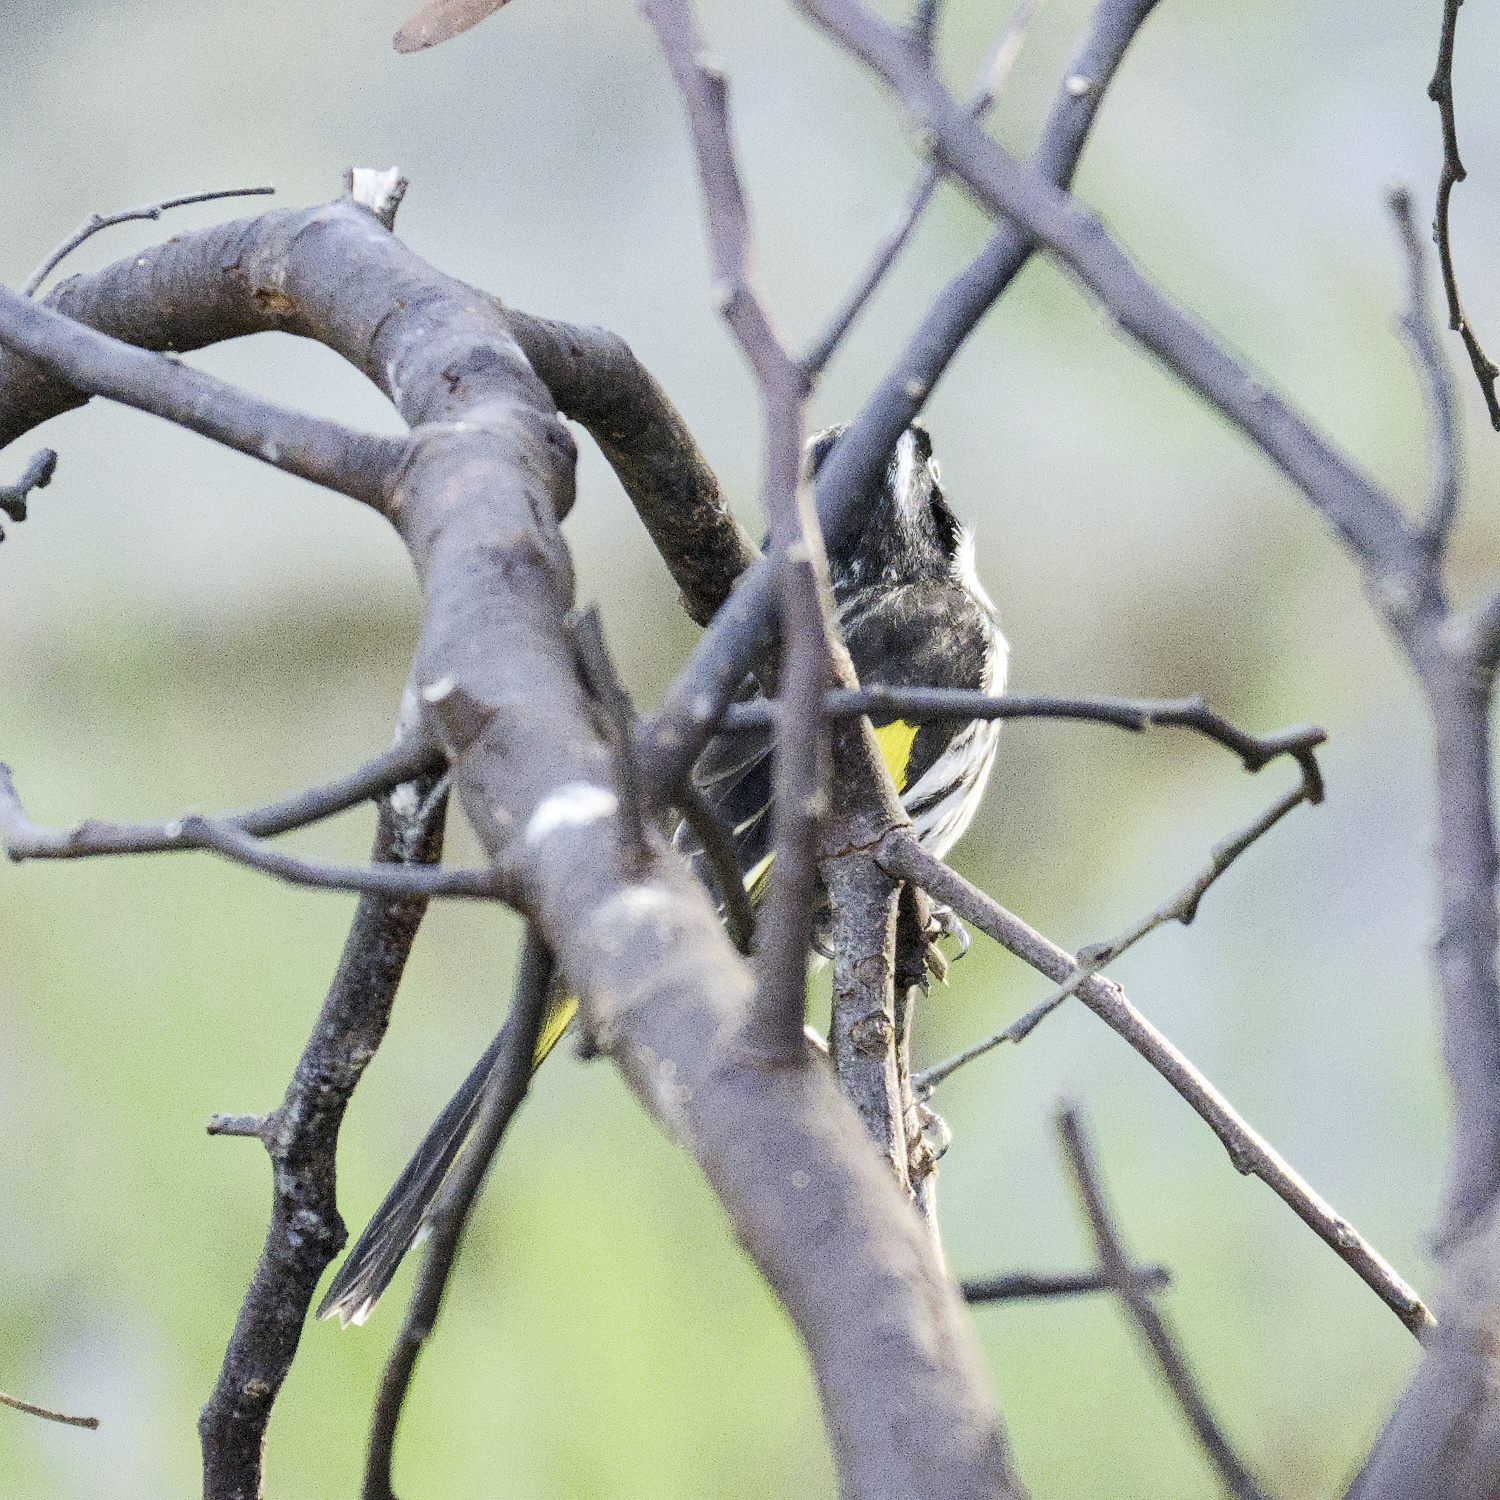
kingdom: Animalia
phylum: Chordata
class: Aves
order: Passeriformes
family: Meliphagidae
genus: Phylidonyris
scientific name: Phylidonyris novaehollandiae
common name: New holland honeyeater
